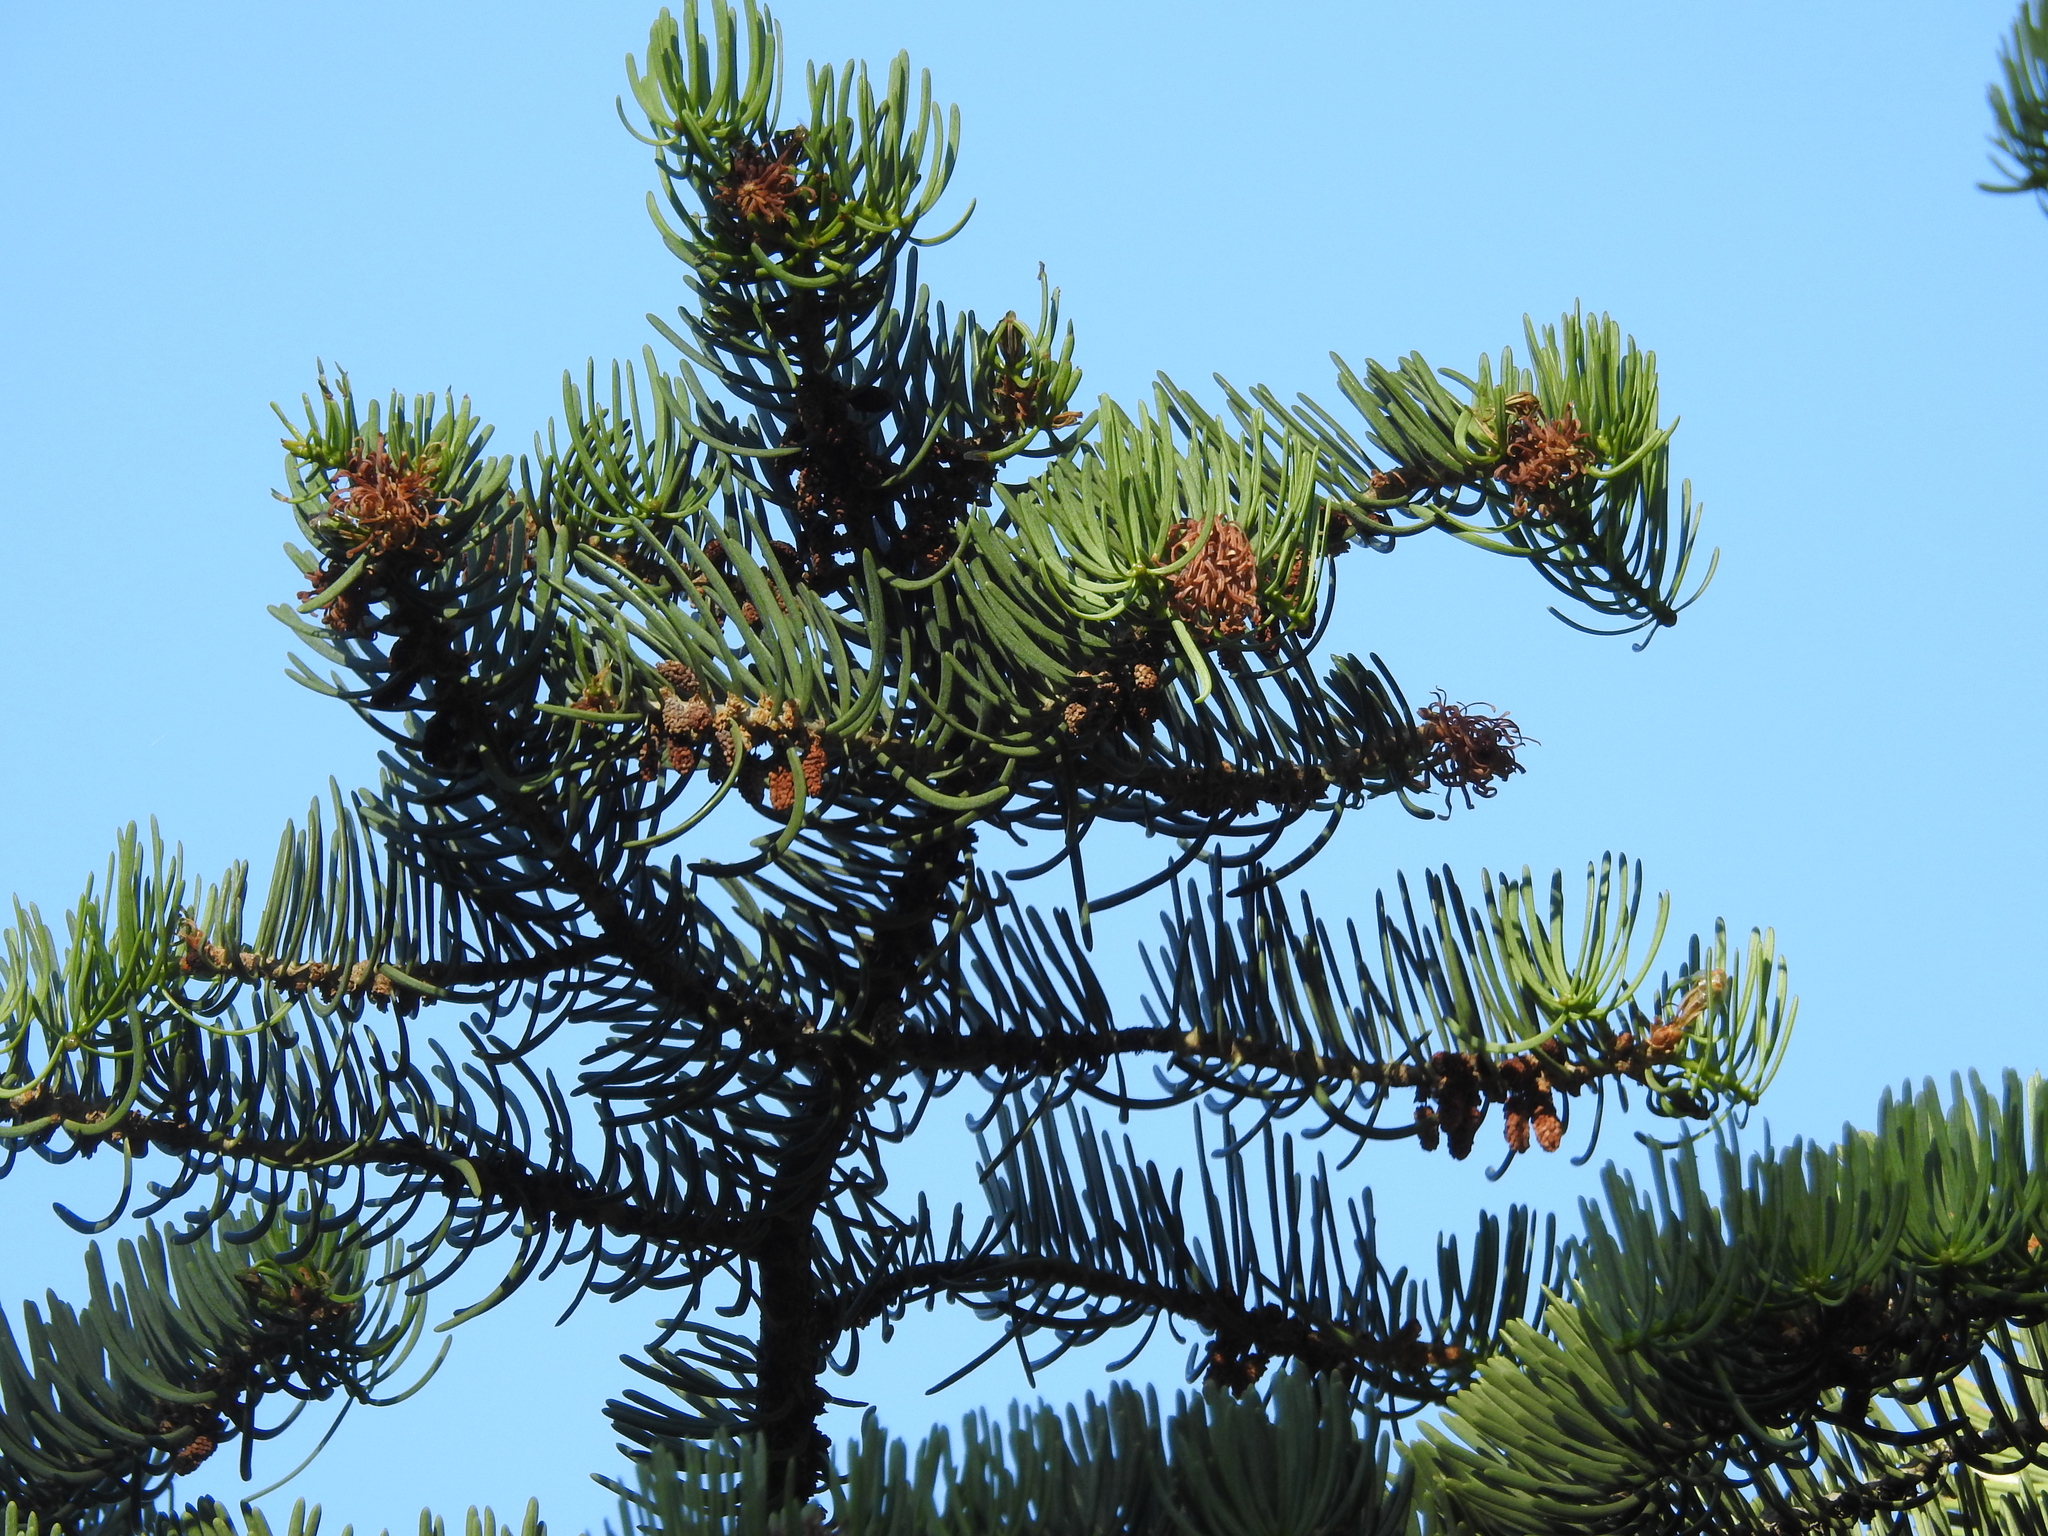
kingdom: Plantae
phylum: Tracheophyta
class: Pinopsida
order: Pinales
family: Pinaceae
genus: Abies
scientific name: Abies concolor
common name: Colorado fir
